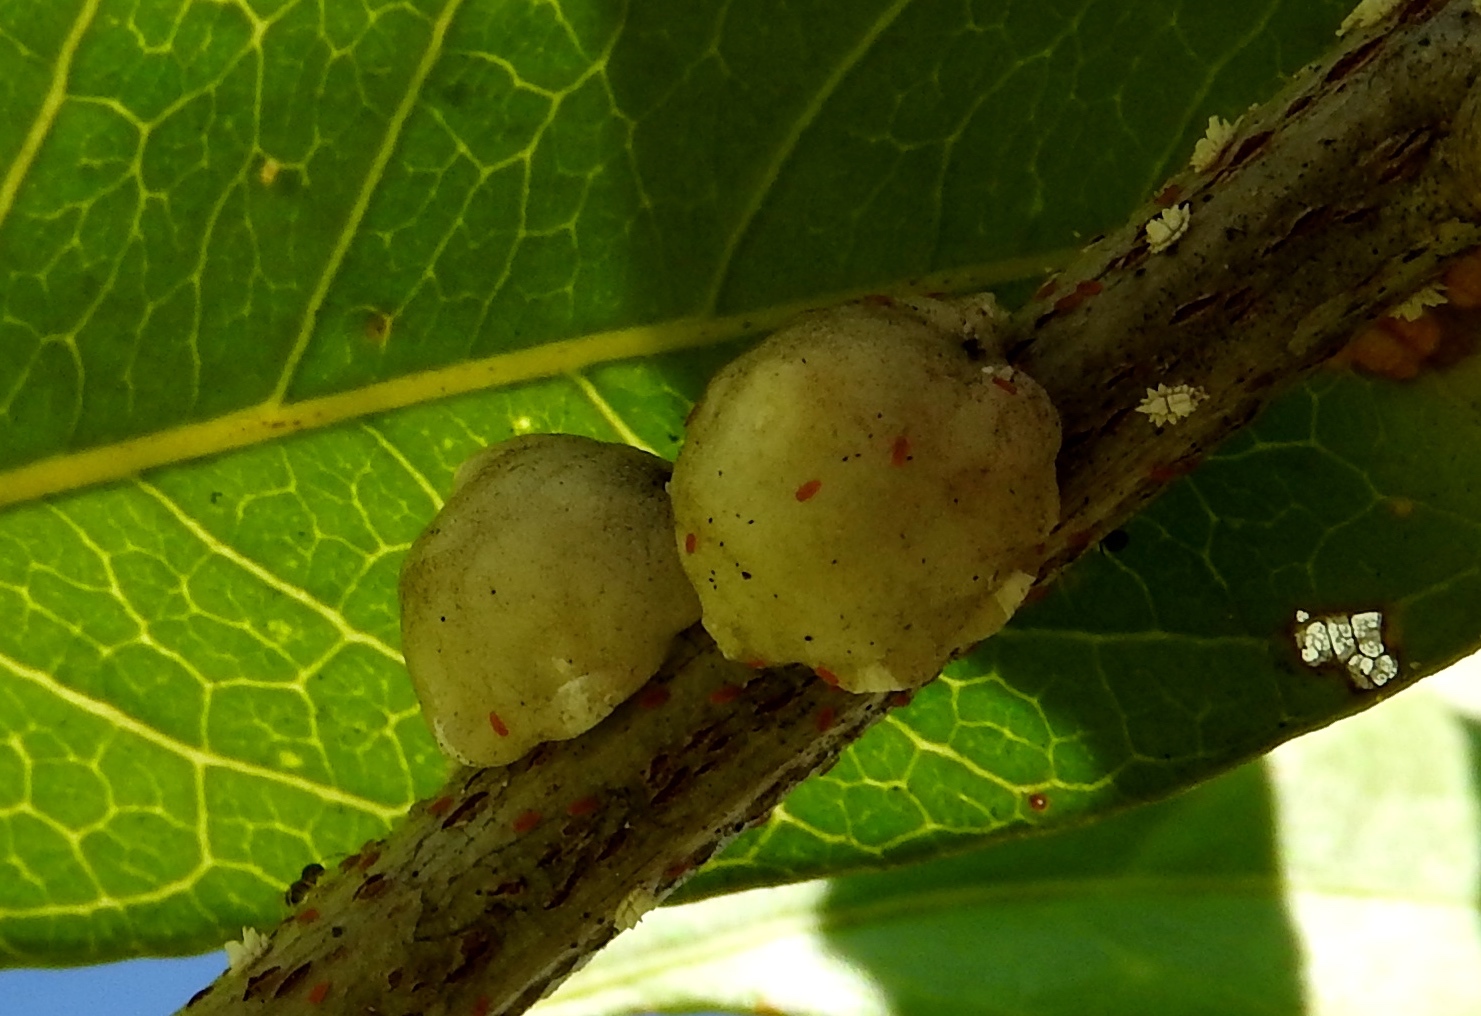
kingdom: Animalia
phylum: Arthropoda
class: Insecta
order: Hemiptera
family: Coccidae
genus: Ceroplastes
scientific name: Ceroplastes
